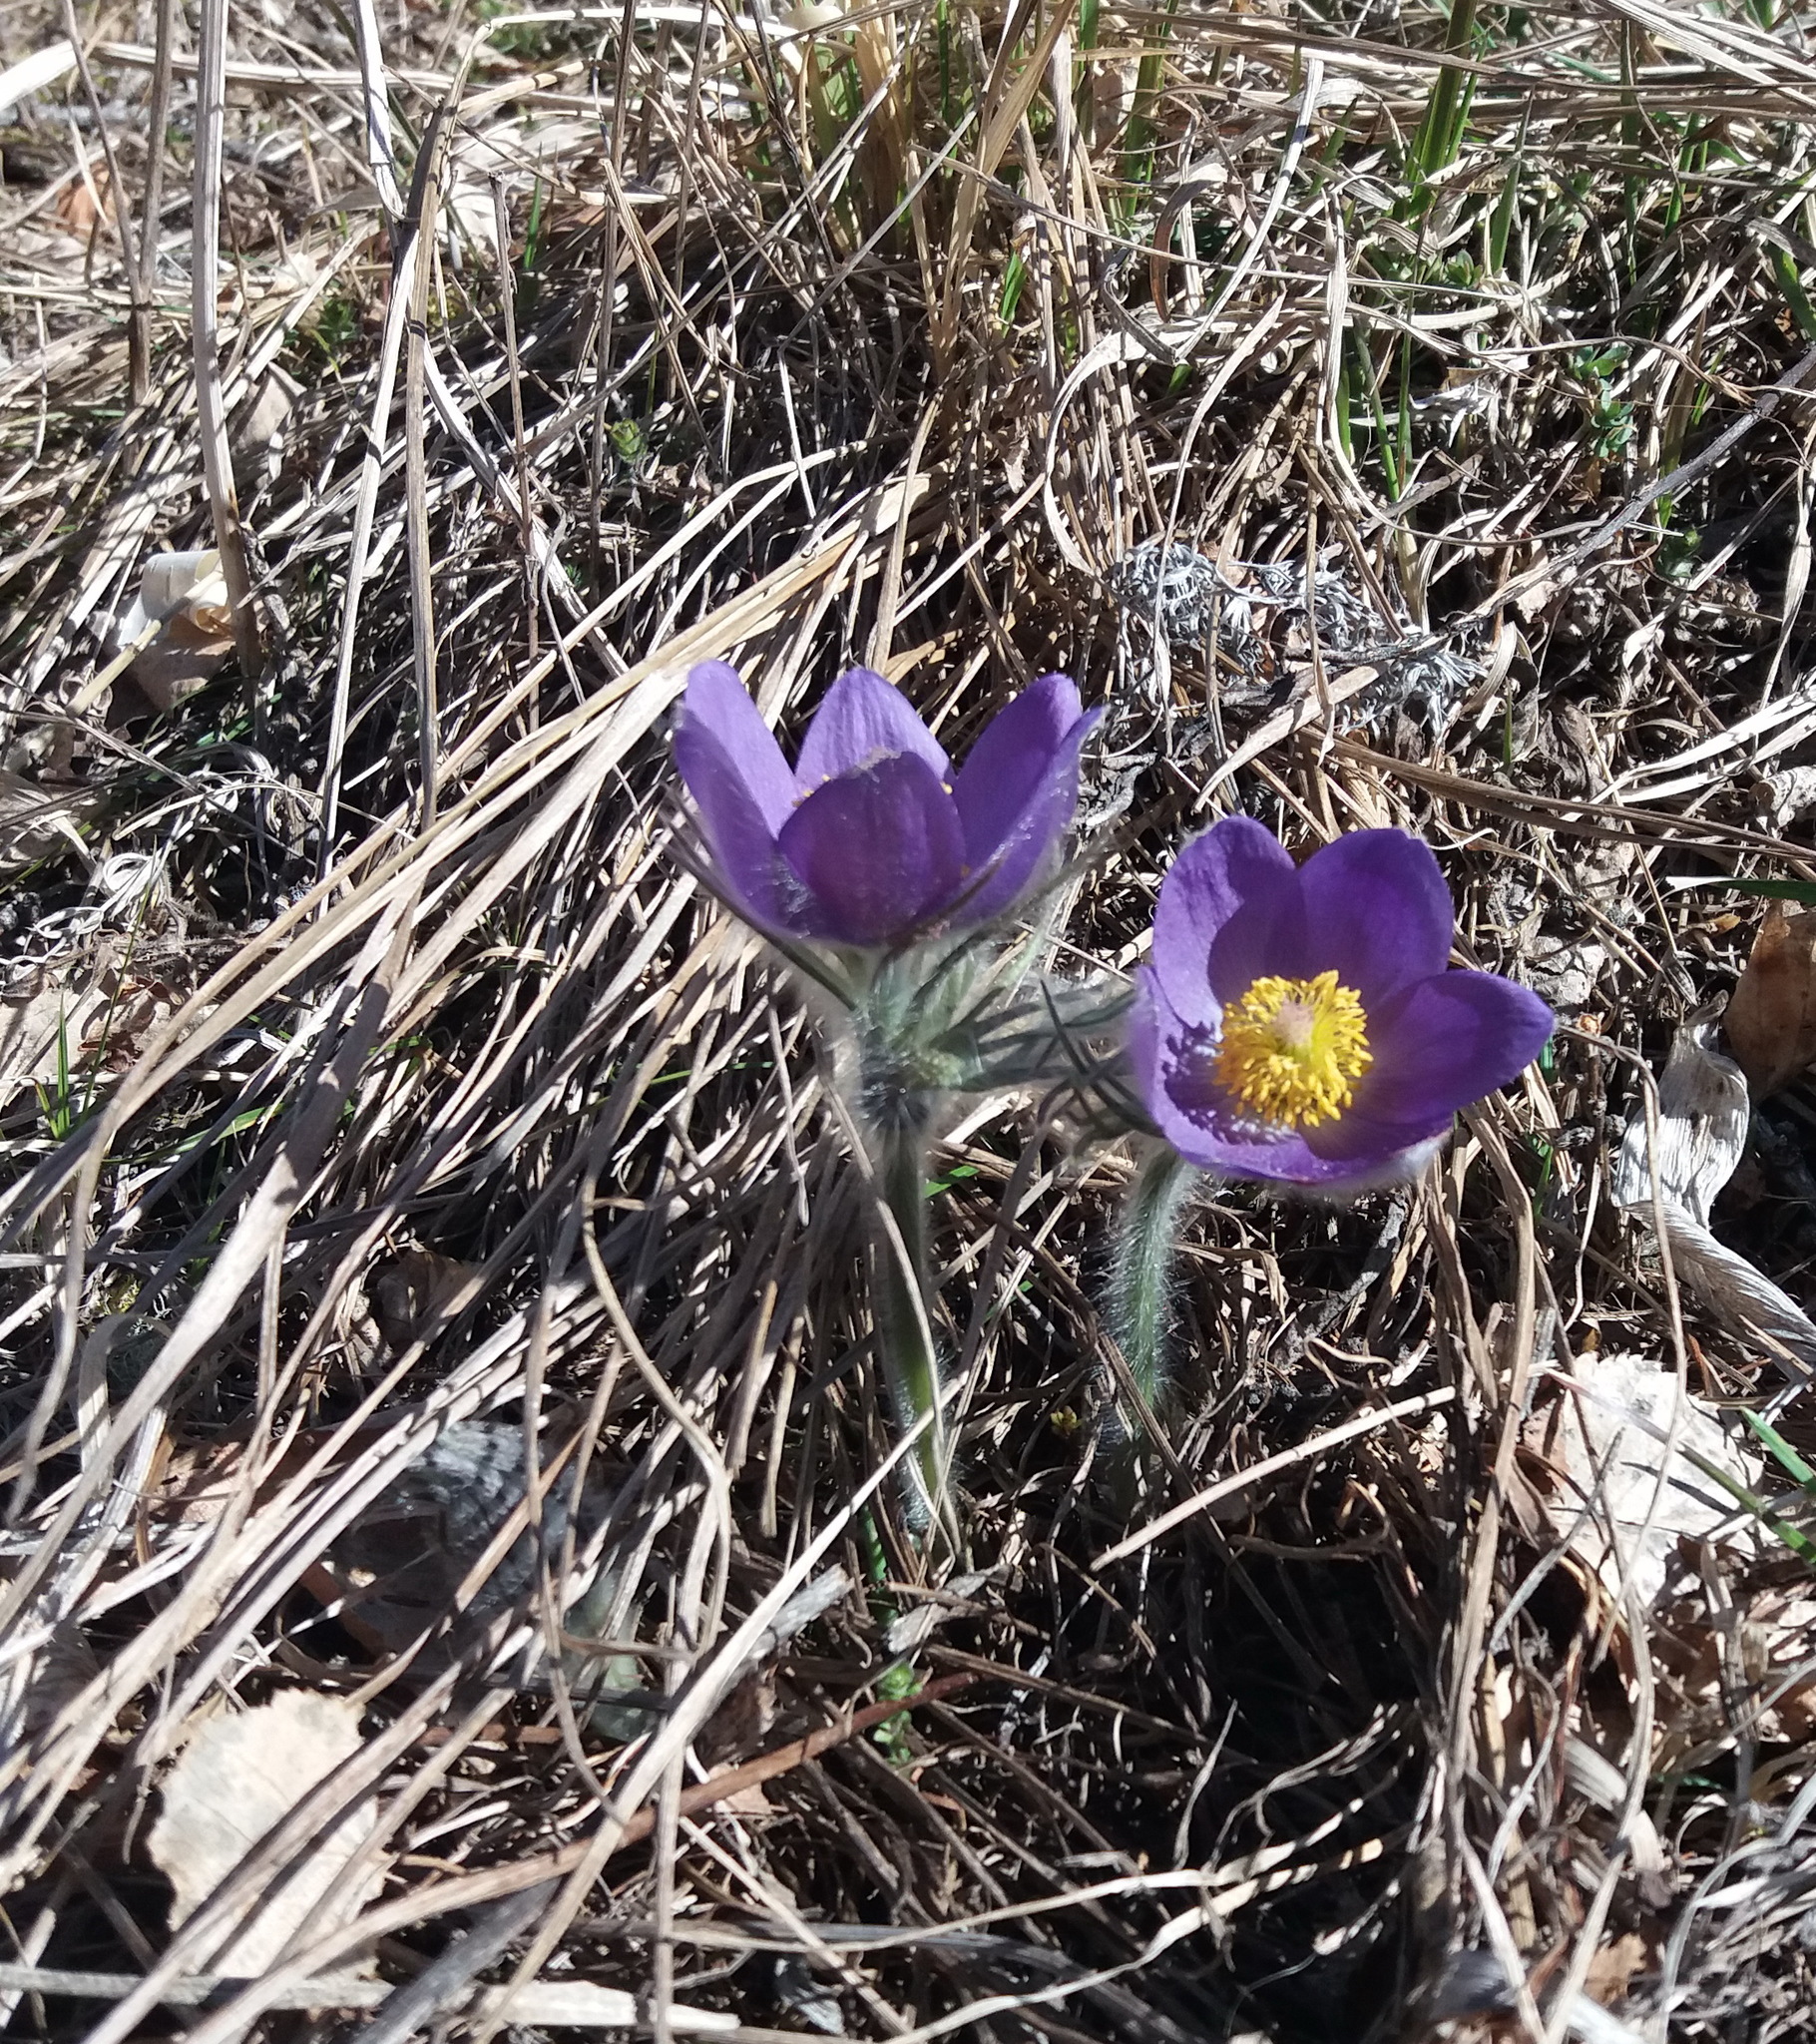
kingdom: Plantae
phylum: Tracheophyta
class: Magnoliopsida
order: Ranunculales
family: Ranunculaceae
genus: Pulsatilla
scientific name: Pulsatilla patens
